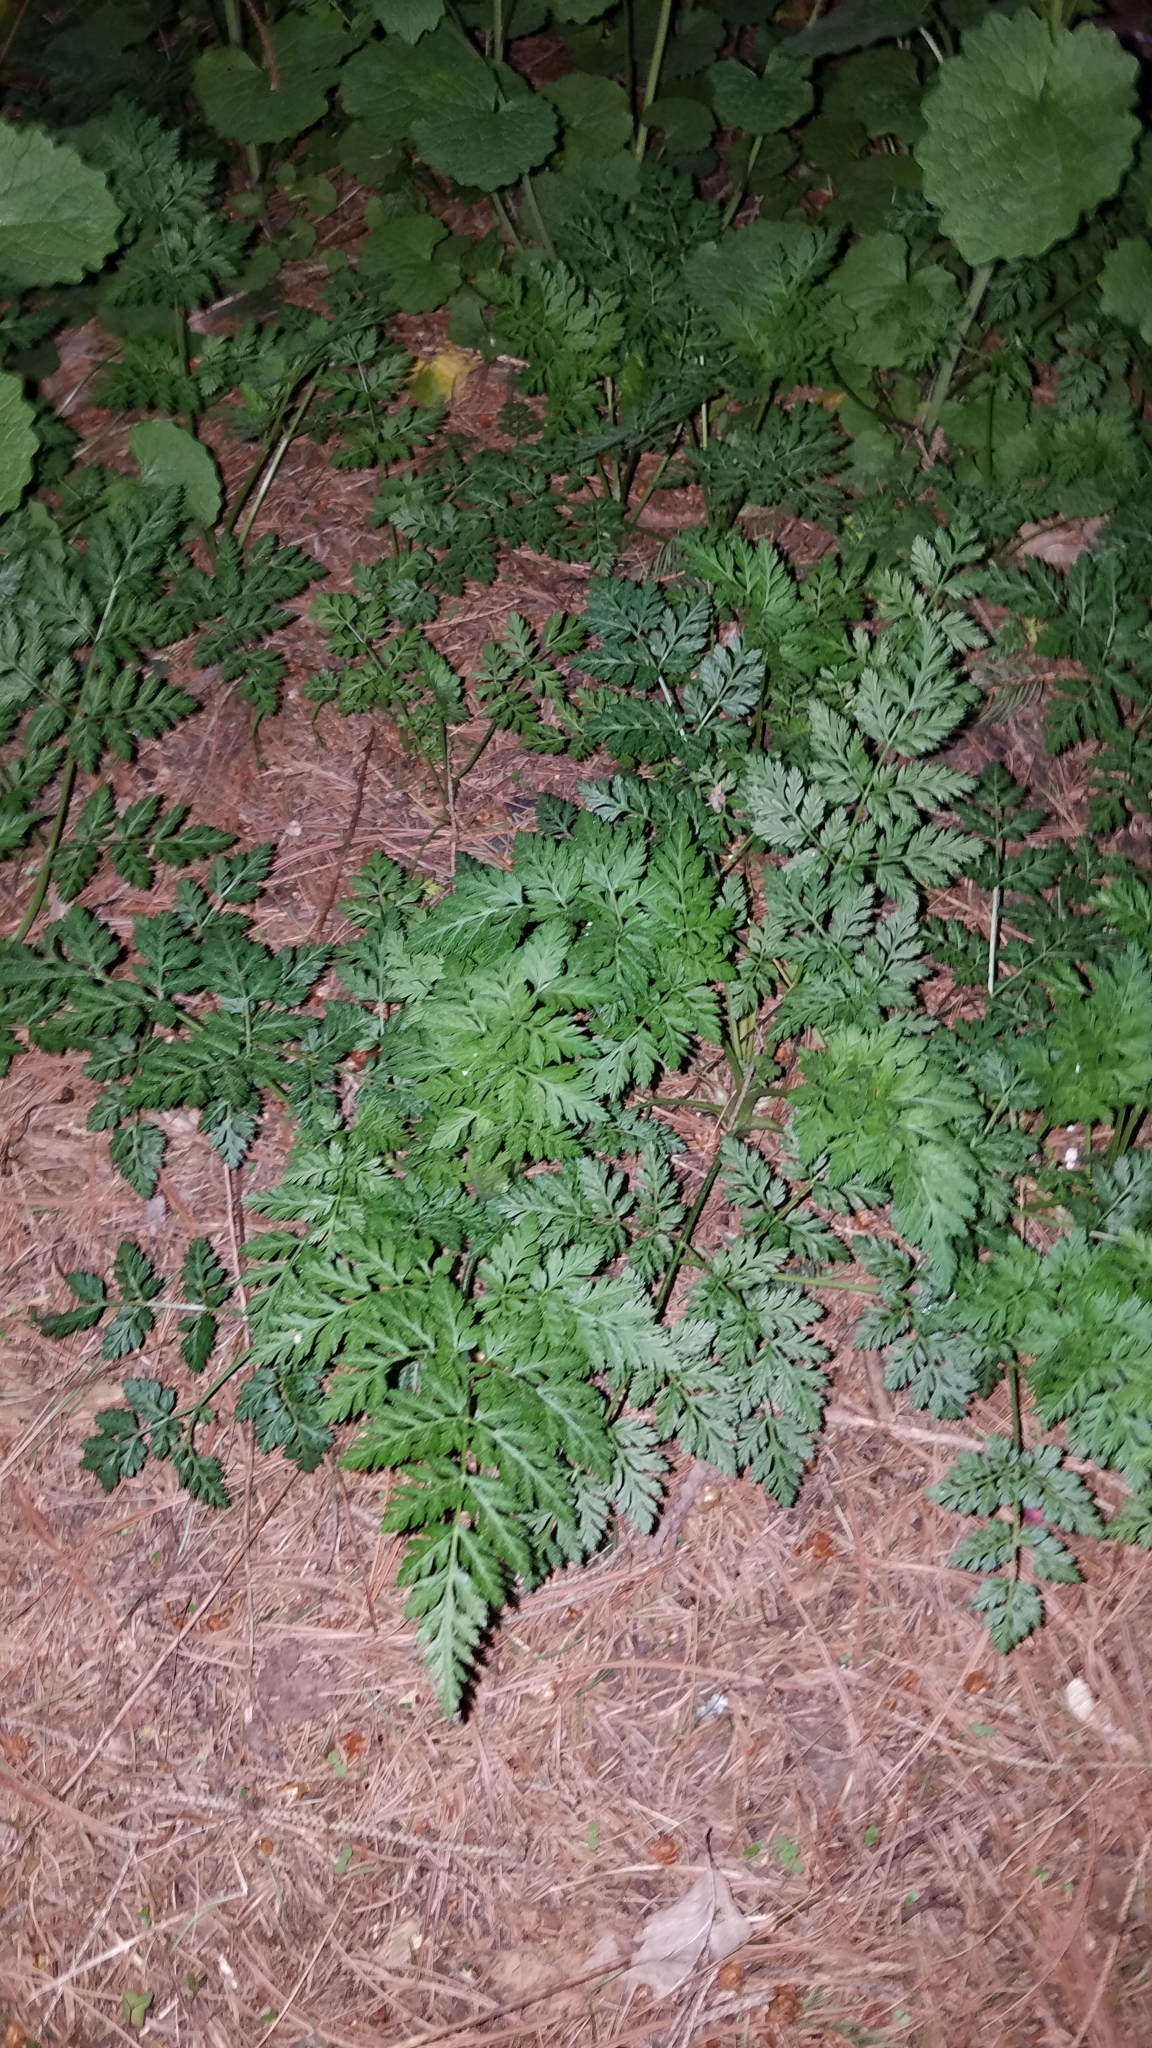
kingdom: Plantae
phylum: Tracheophyta
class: Magnoliopsida
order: Apiales
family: Apiaceae
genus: Conium
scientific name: Conium maculatum
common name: Hemlock
